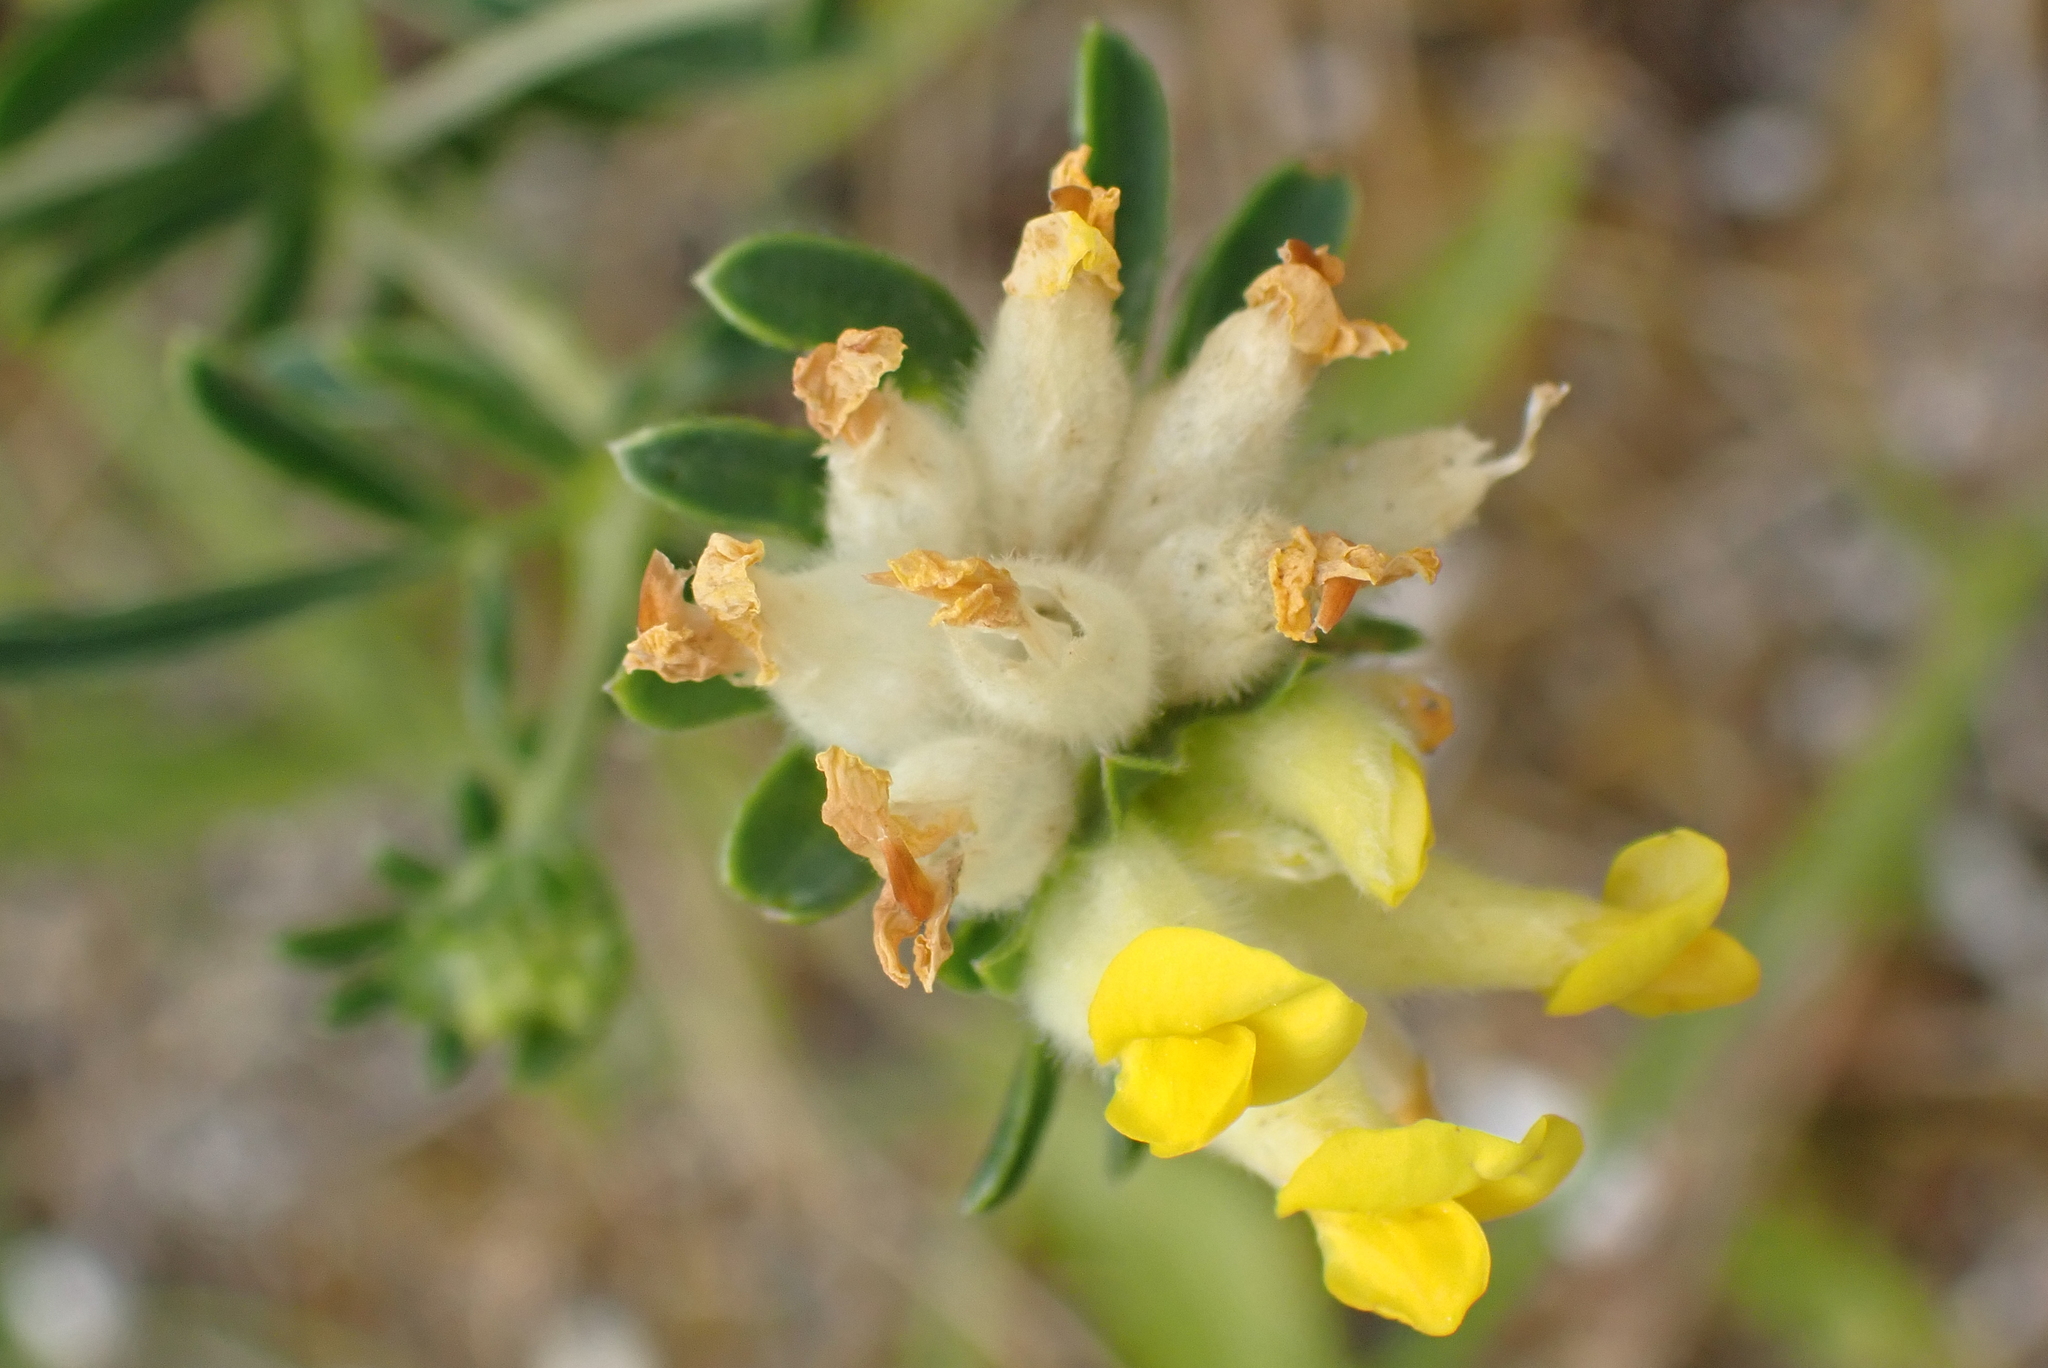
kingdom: Plantae
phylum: Tracheophyta
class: Magnoliopsida
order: Fabales
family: Fabaceae
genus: Anthyllis
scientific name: Anthyllis vulneraria
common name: Kidney vetch
